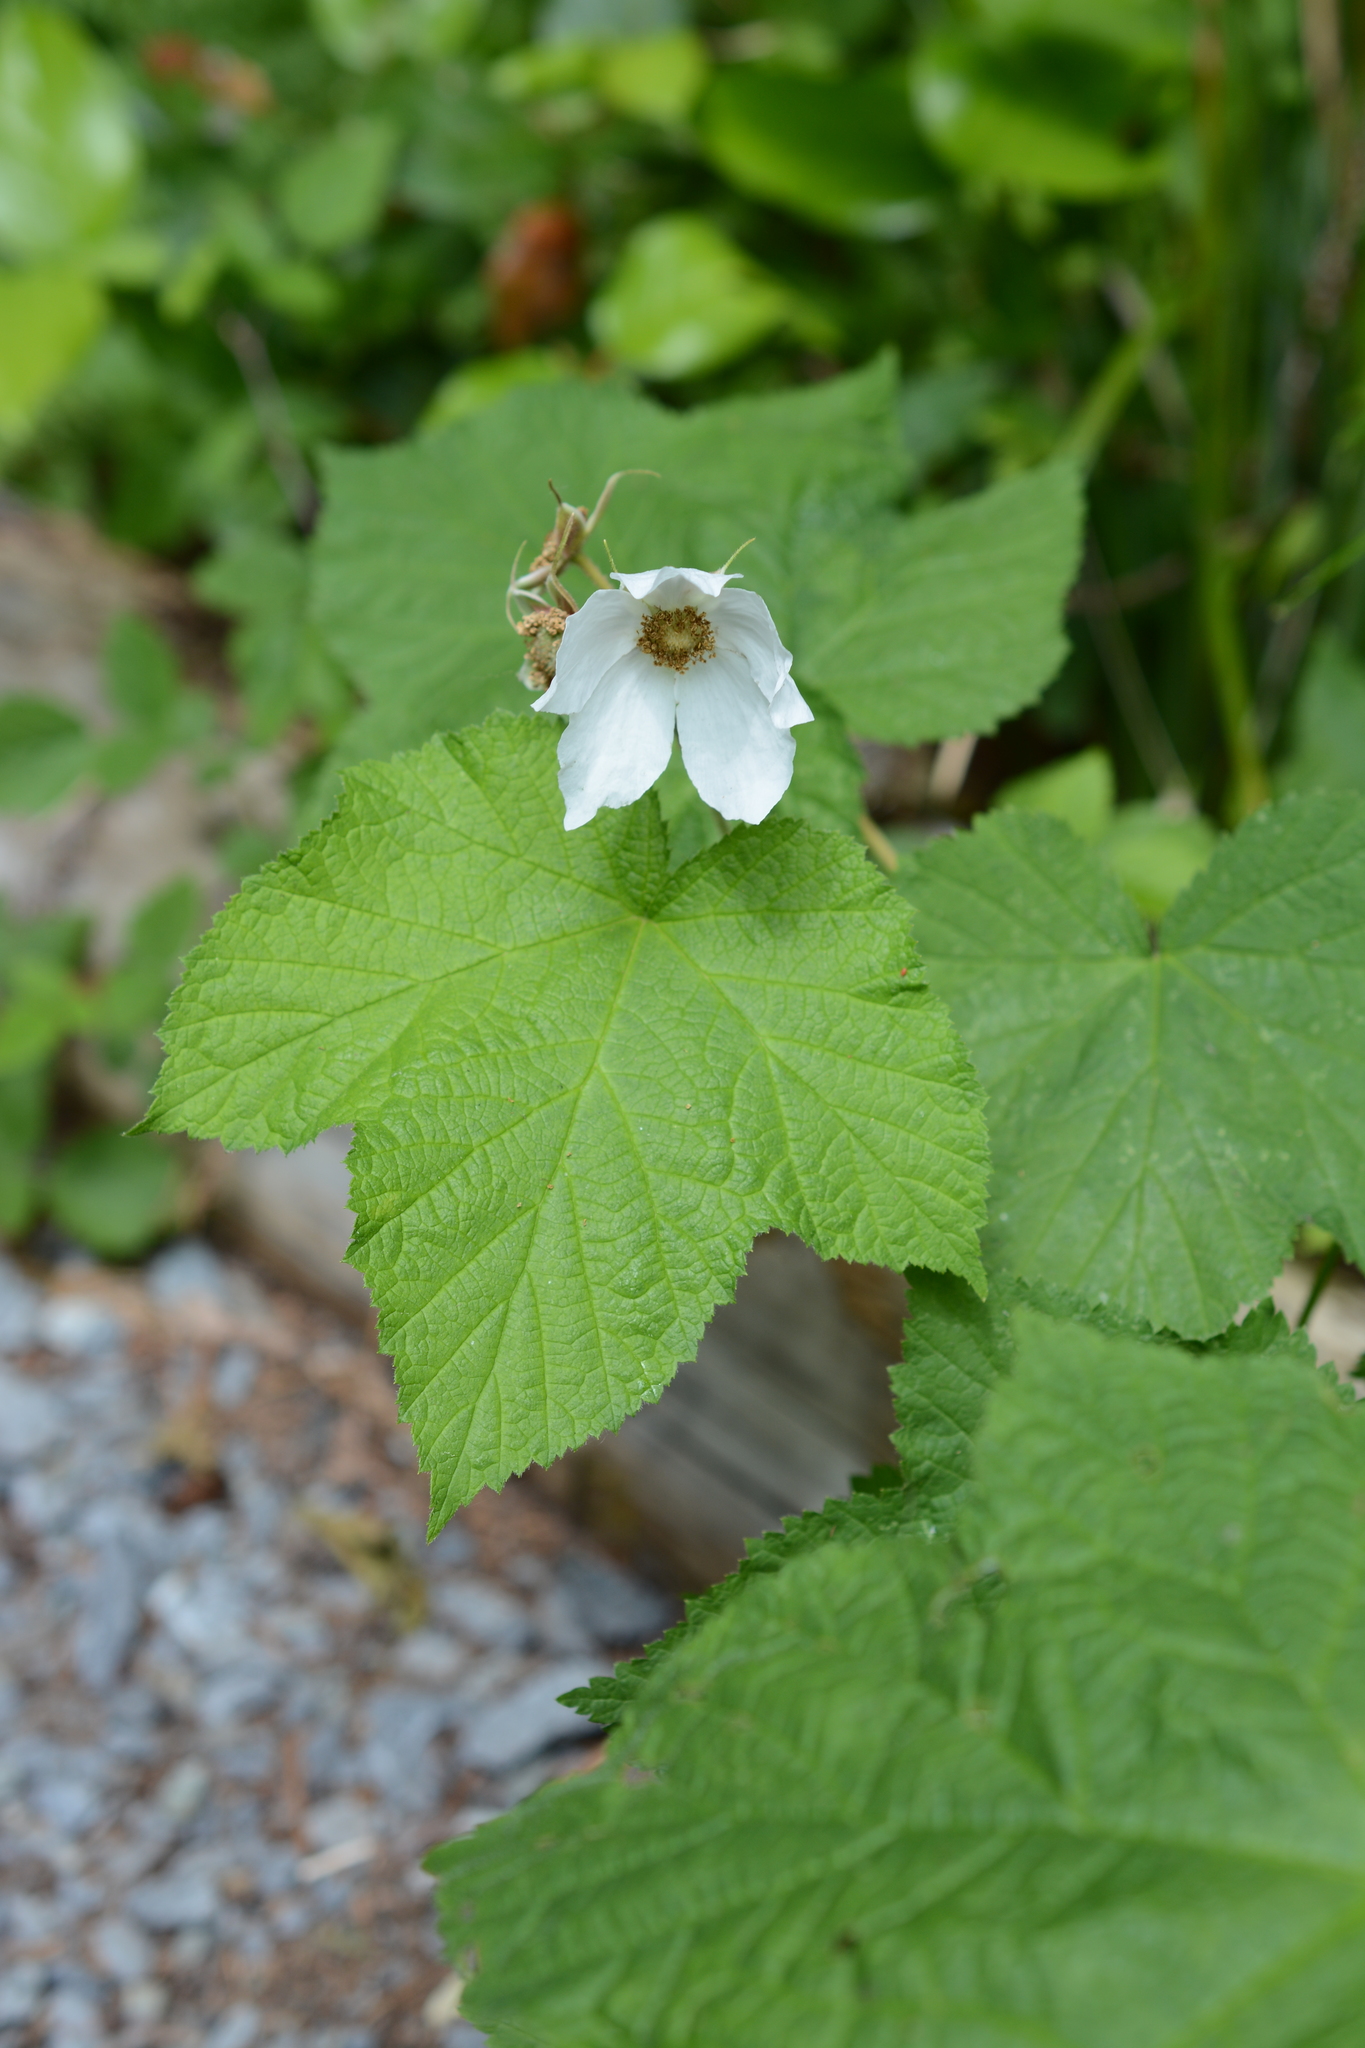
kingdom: Plantae
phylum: Tracheophyta
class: Magnoliopsida
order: Rosales
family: Rosaceae
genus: Rubus
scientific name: Rubus parviflorus
